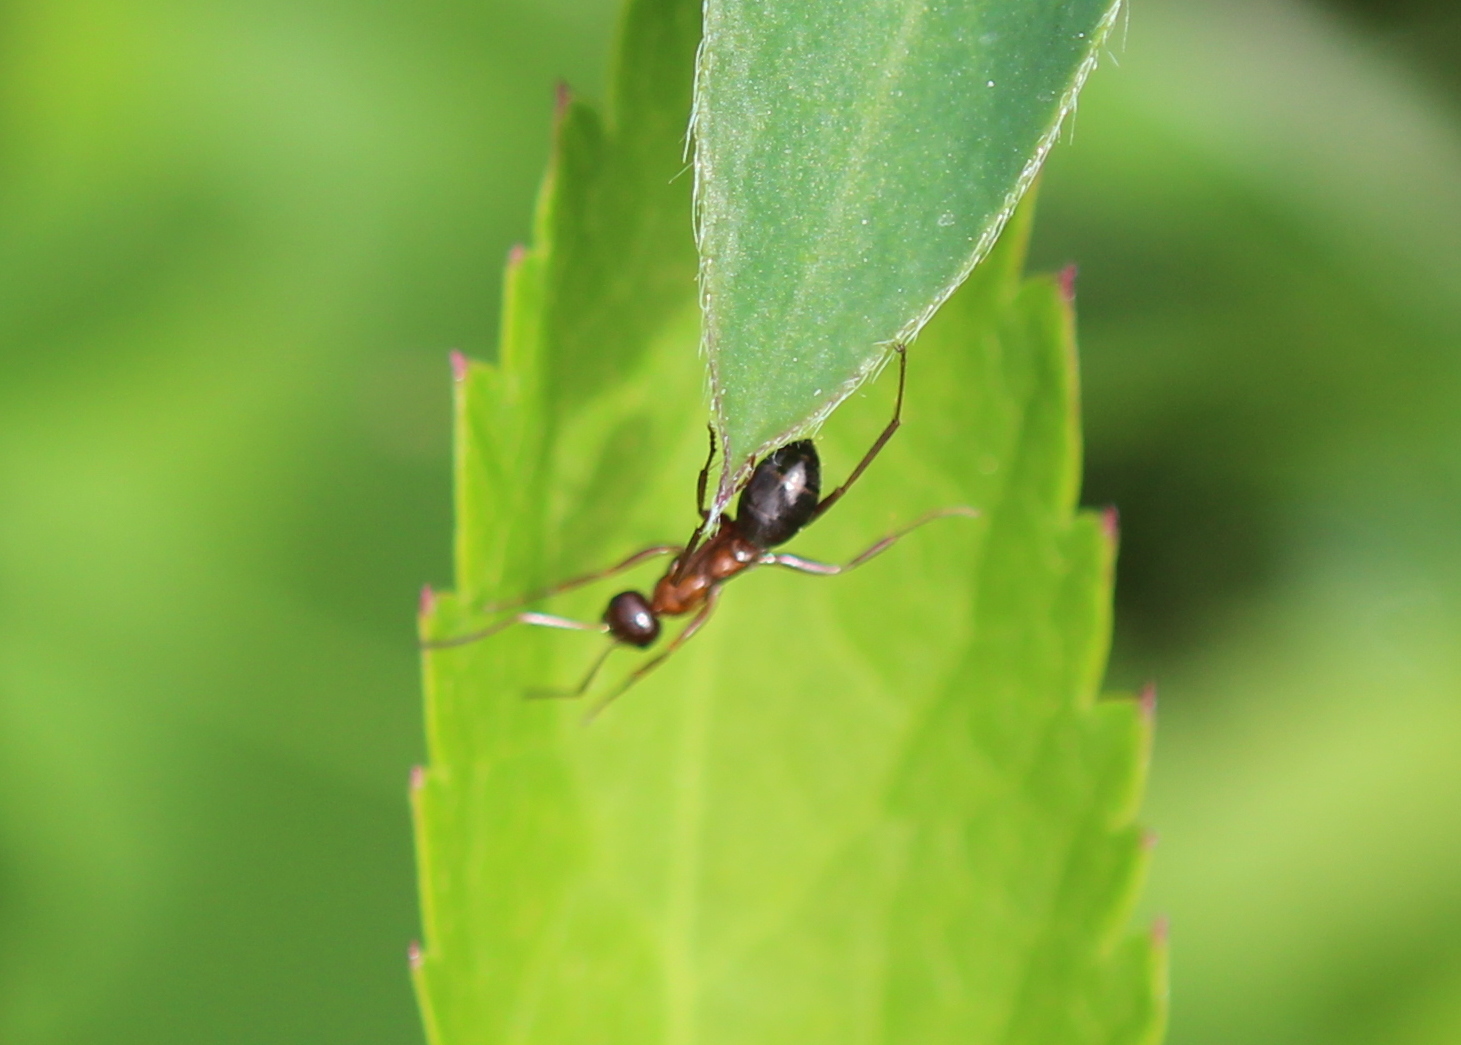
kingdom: Animalia
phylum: Arthropoda
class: Insecta
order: Hymenoptera
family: Formicidae
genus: Formica
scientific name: Formica
